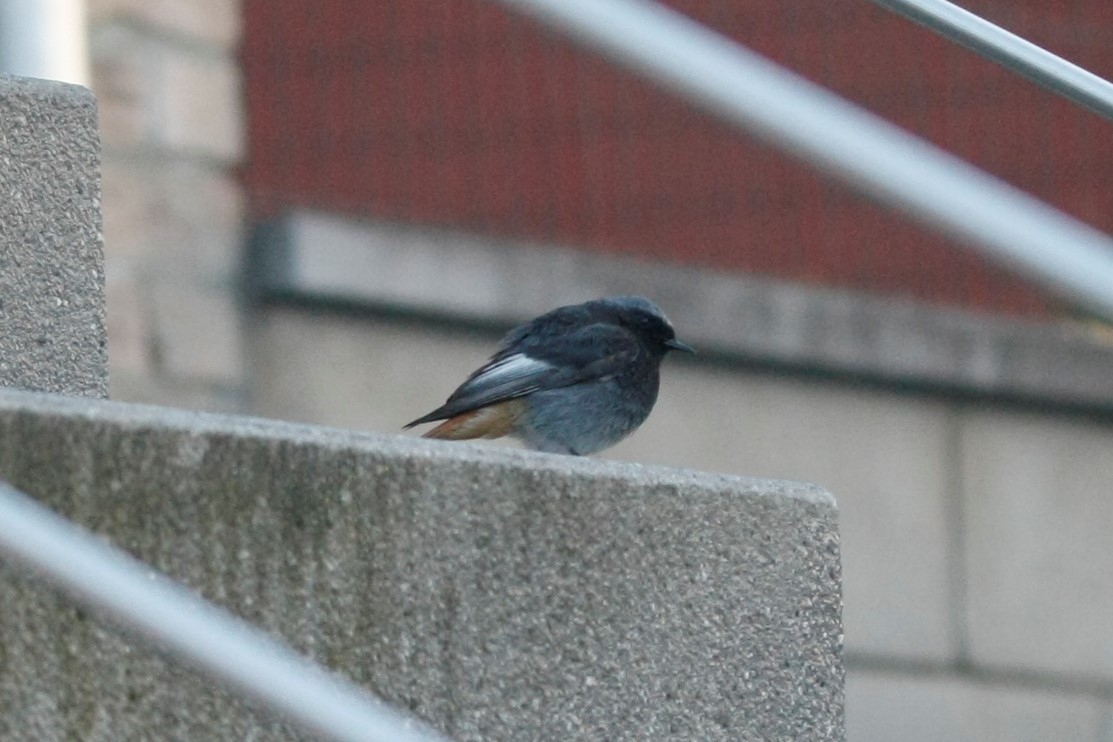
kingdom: Animalia
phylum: Chordata
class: Aves
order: Passeriformes
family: Muscicapidae
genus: Phoenicurus
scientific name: Phoenicurus ochruros
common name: Black redstart
